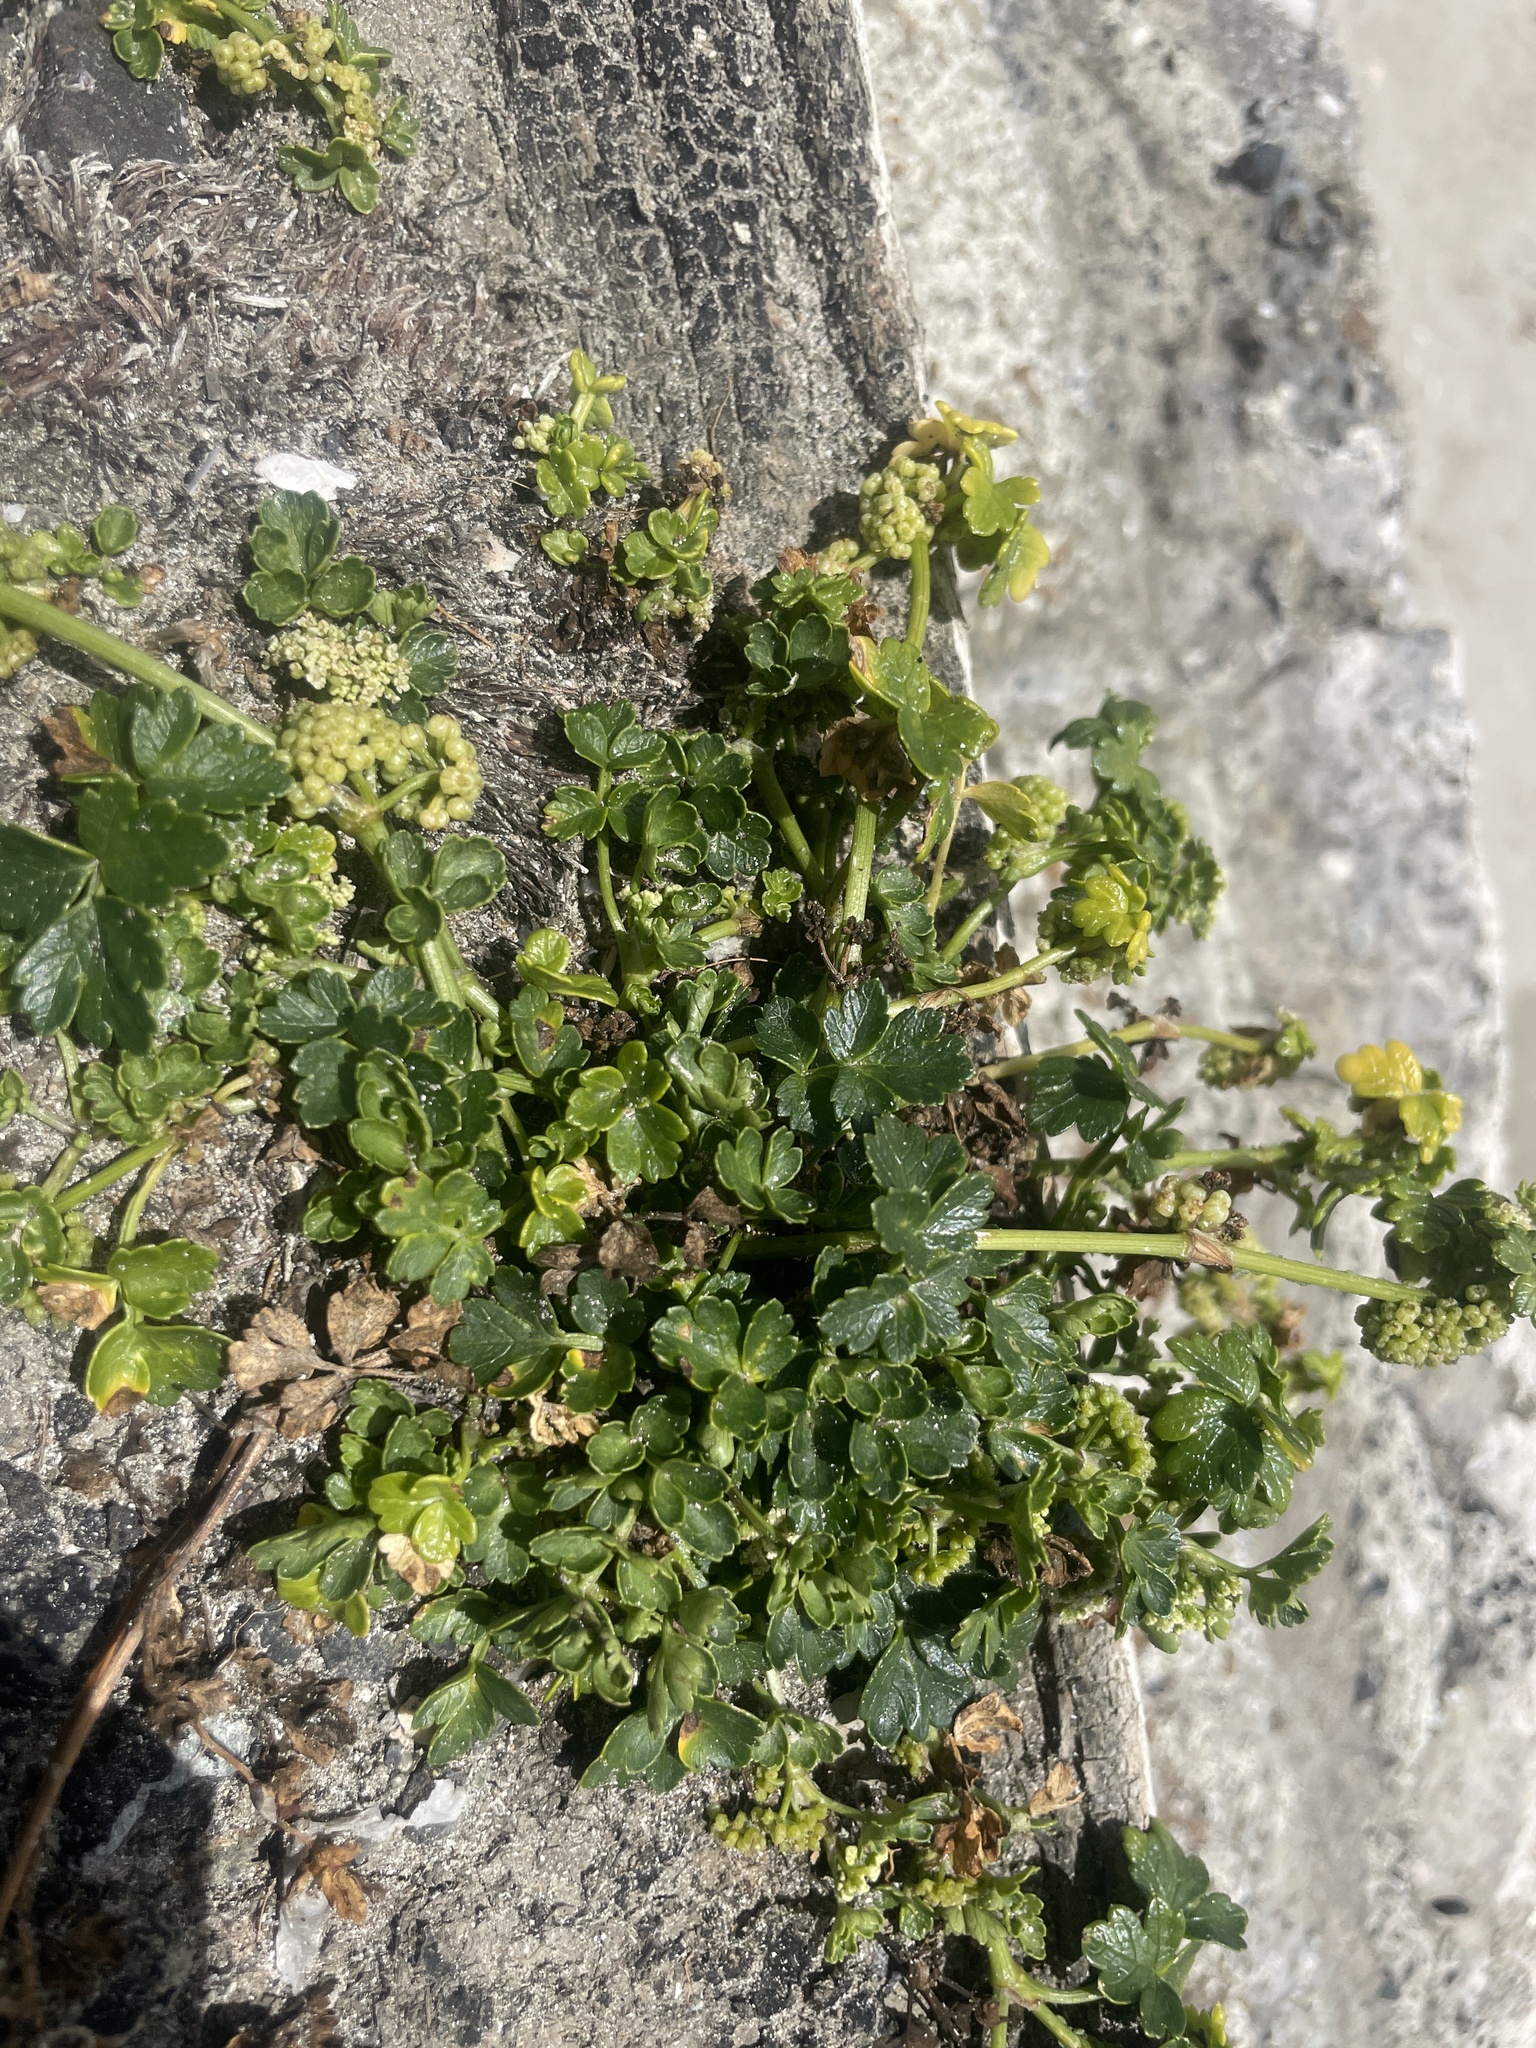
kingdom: Plantae
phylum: Tracheophyta
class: Magnoliopsida
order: Apiales
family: Apiaceae
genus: Apium
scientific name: Apium prostratum
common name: Prostrate marshwort
